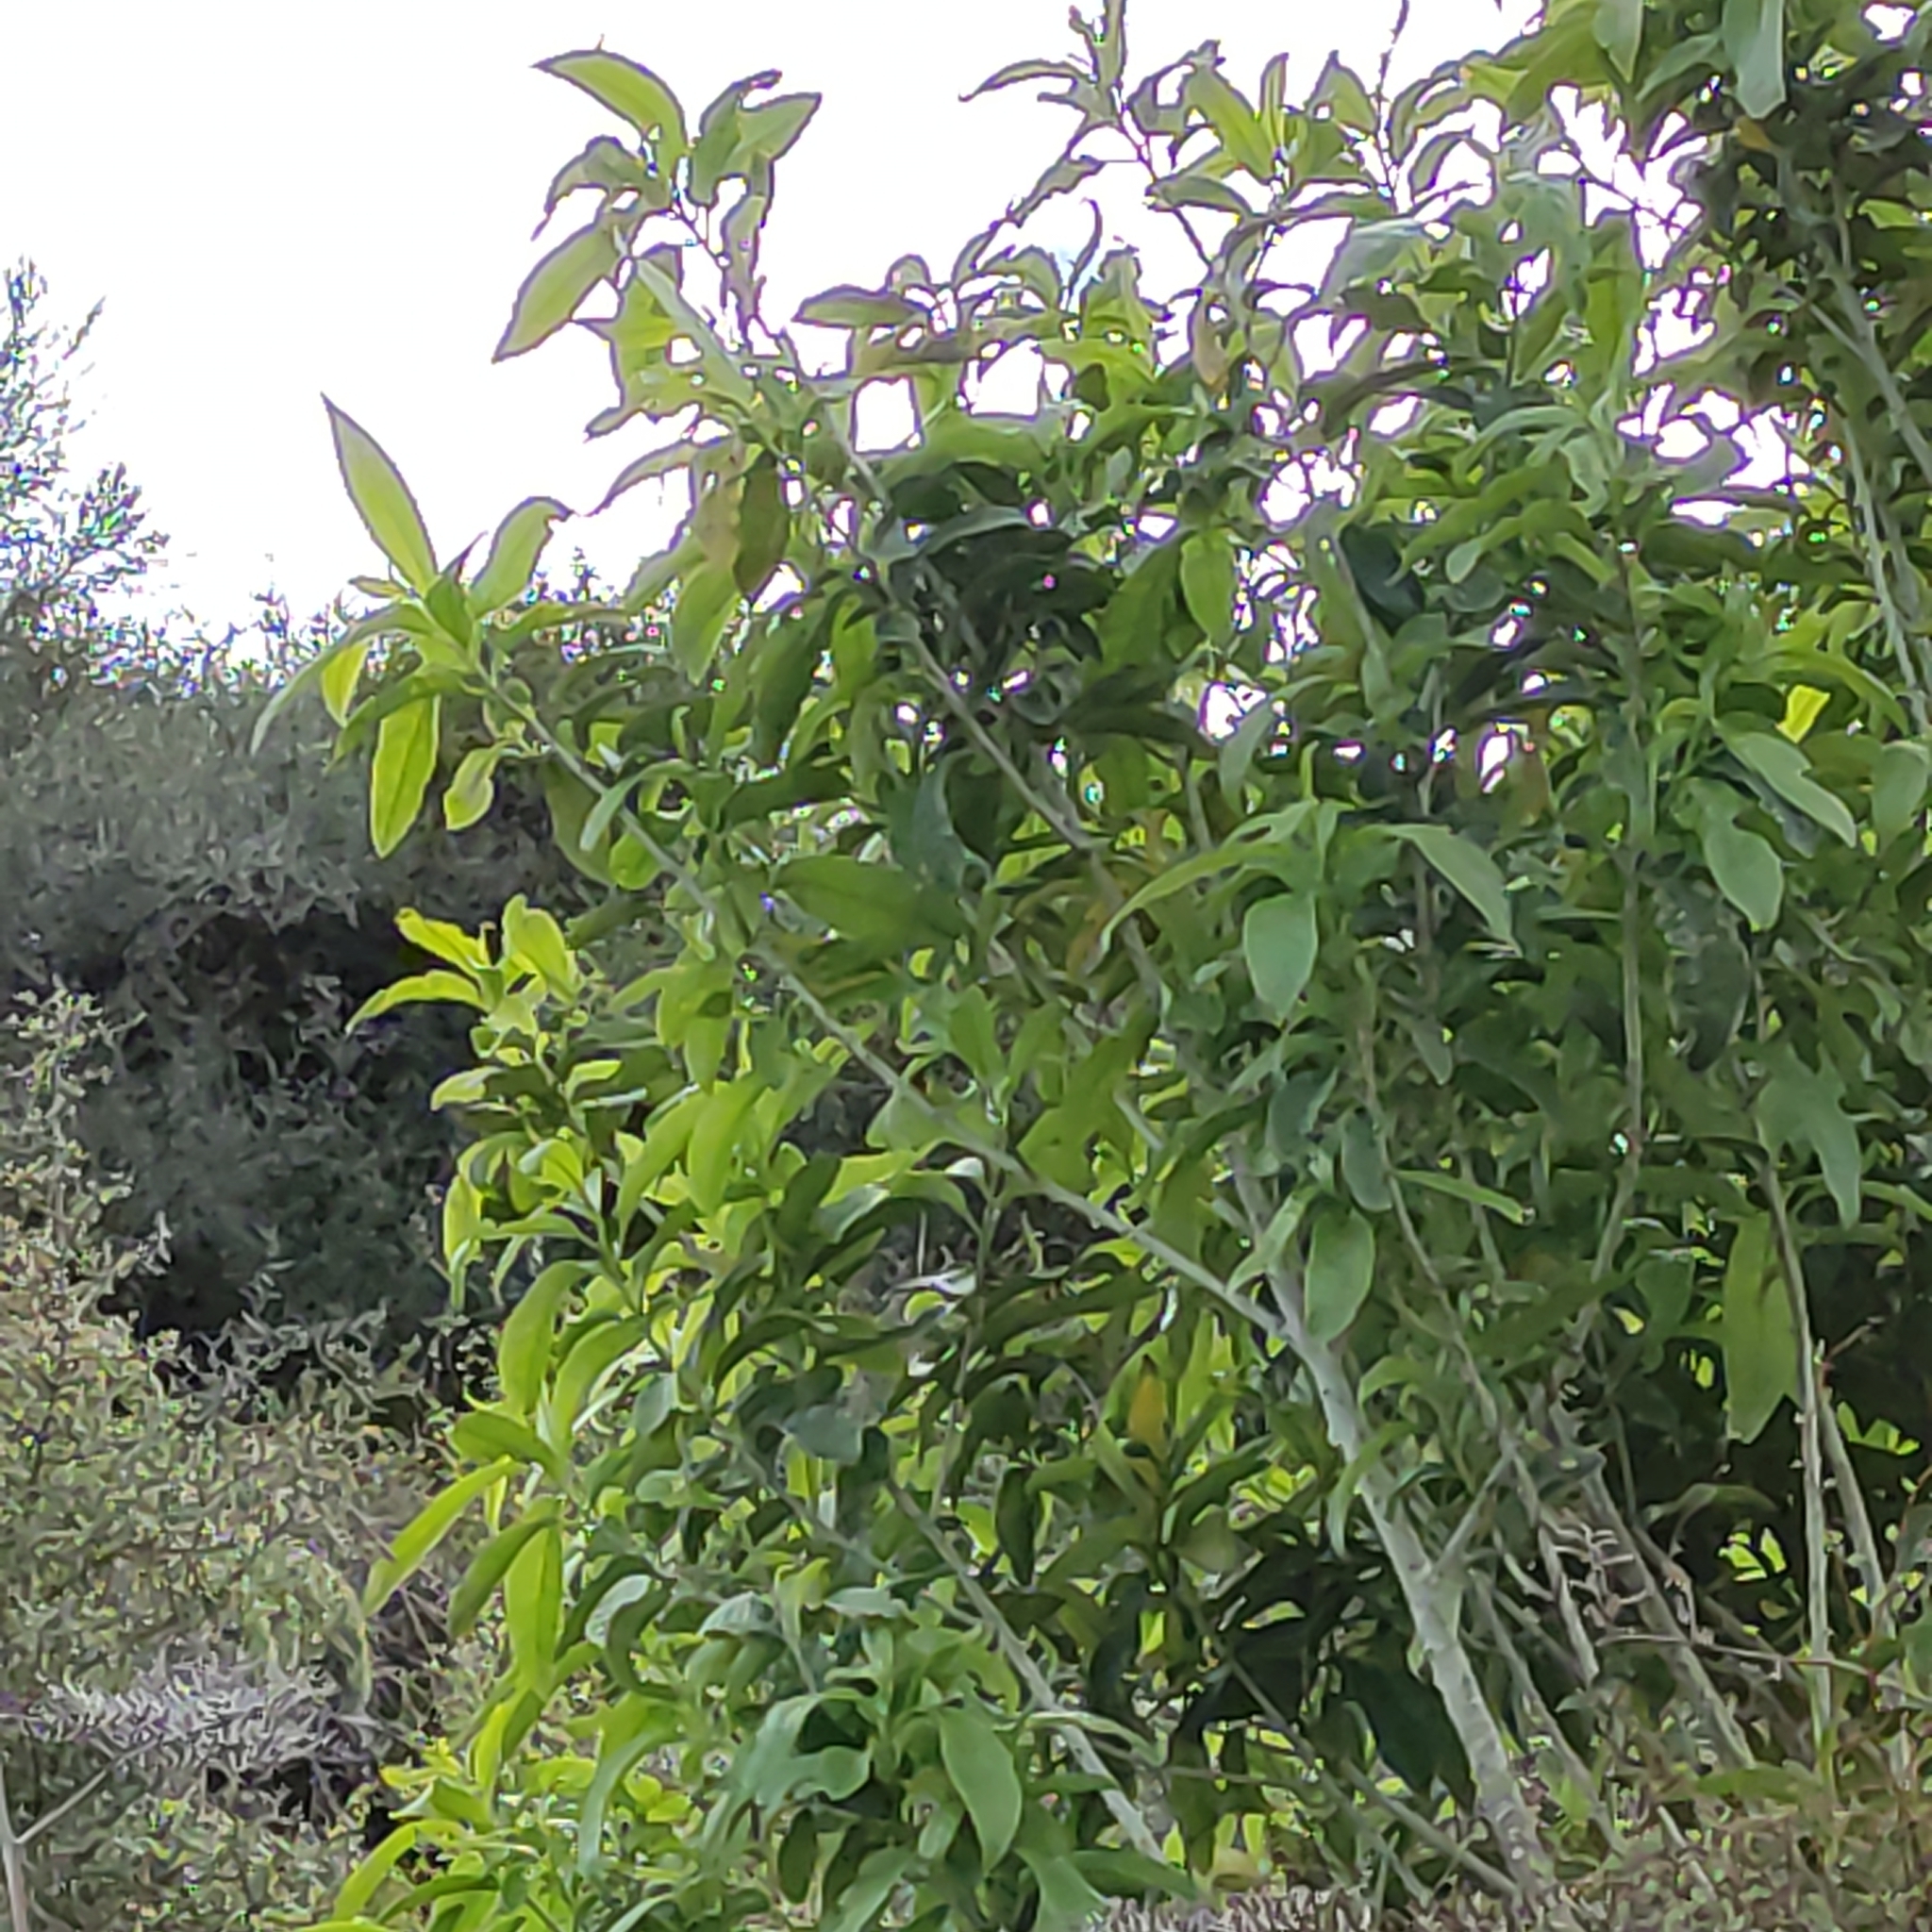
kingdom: Plantae
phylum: Tracheophyta
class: Magnoliopsida
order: Malpighiales
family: Violaceae
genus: Melicytus
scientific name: Melicytus ramiflorus
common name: Mahoe
